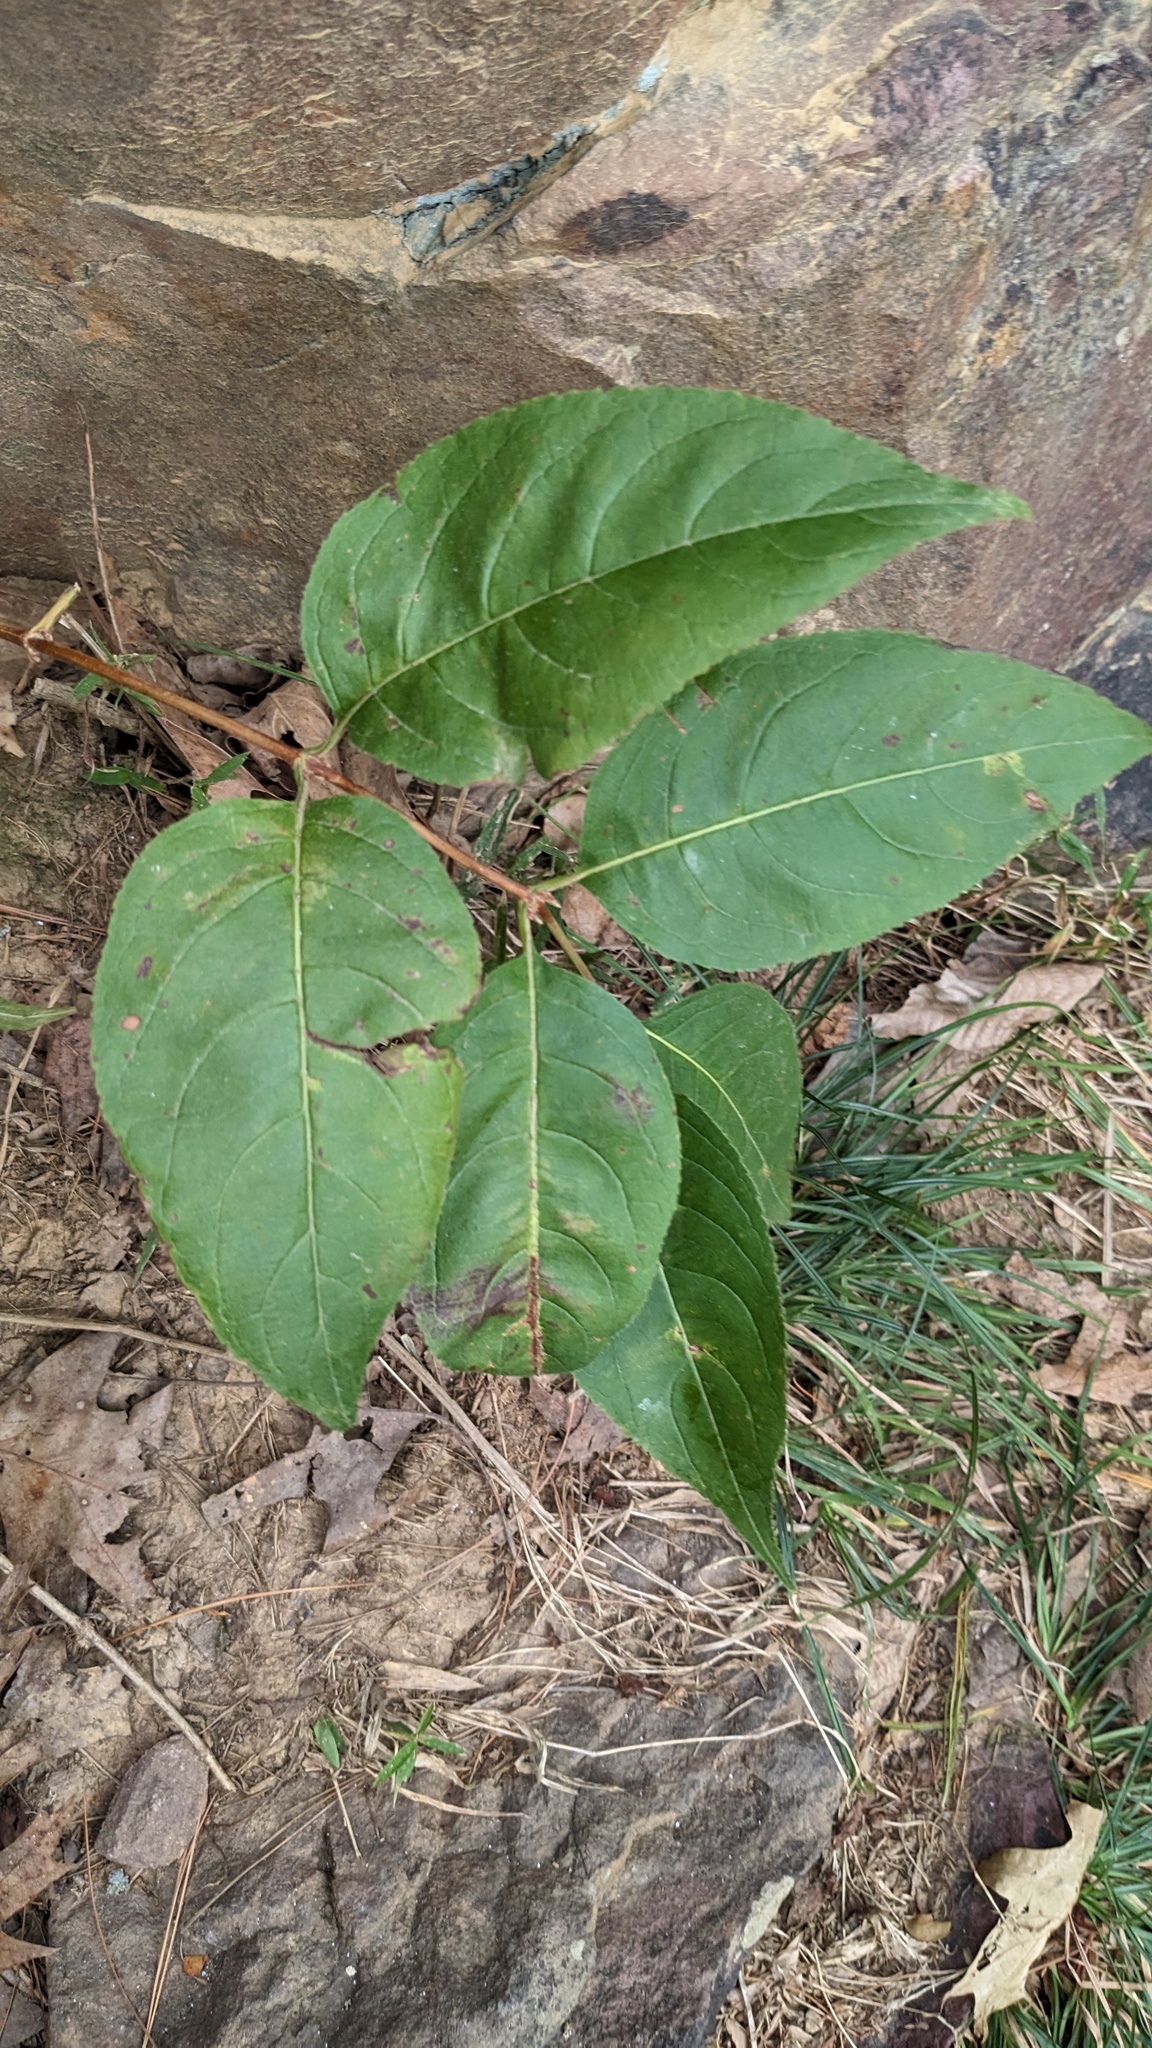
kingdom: Plantae
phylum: Tracheophyta
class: Magnoliopsida
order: Dipsacales
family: Caprifoliaceae
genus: Diervilla
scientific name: Diervilla lonicera
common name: Bush-honeysuckle
